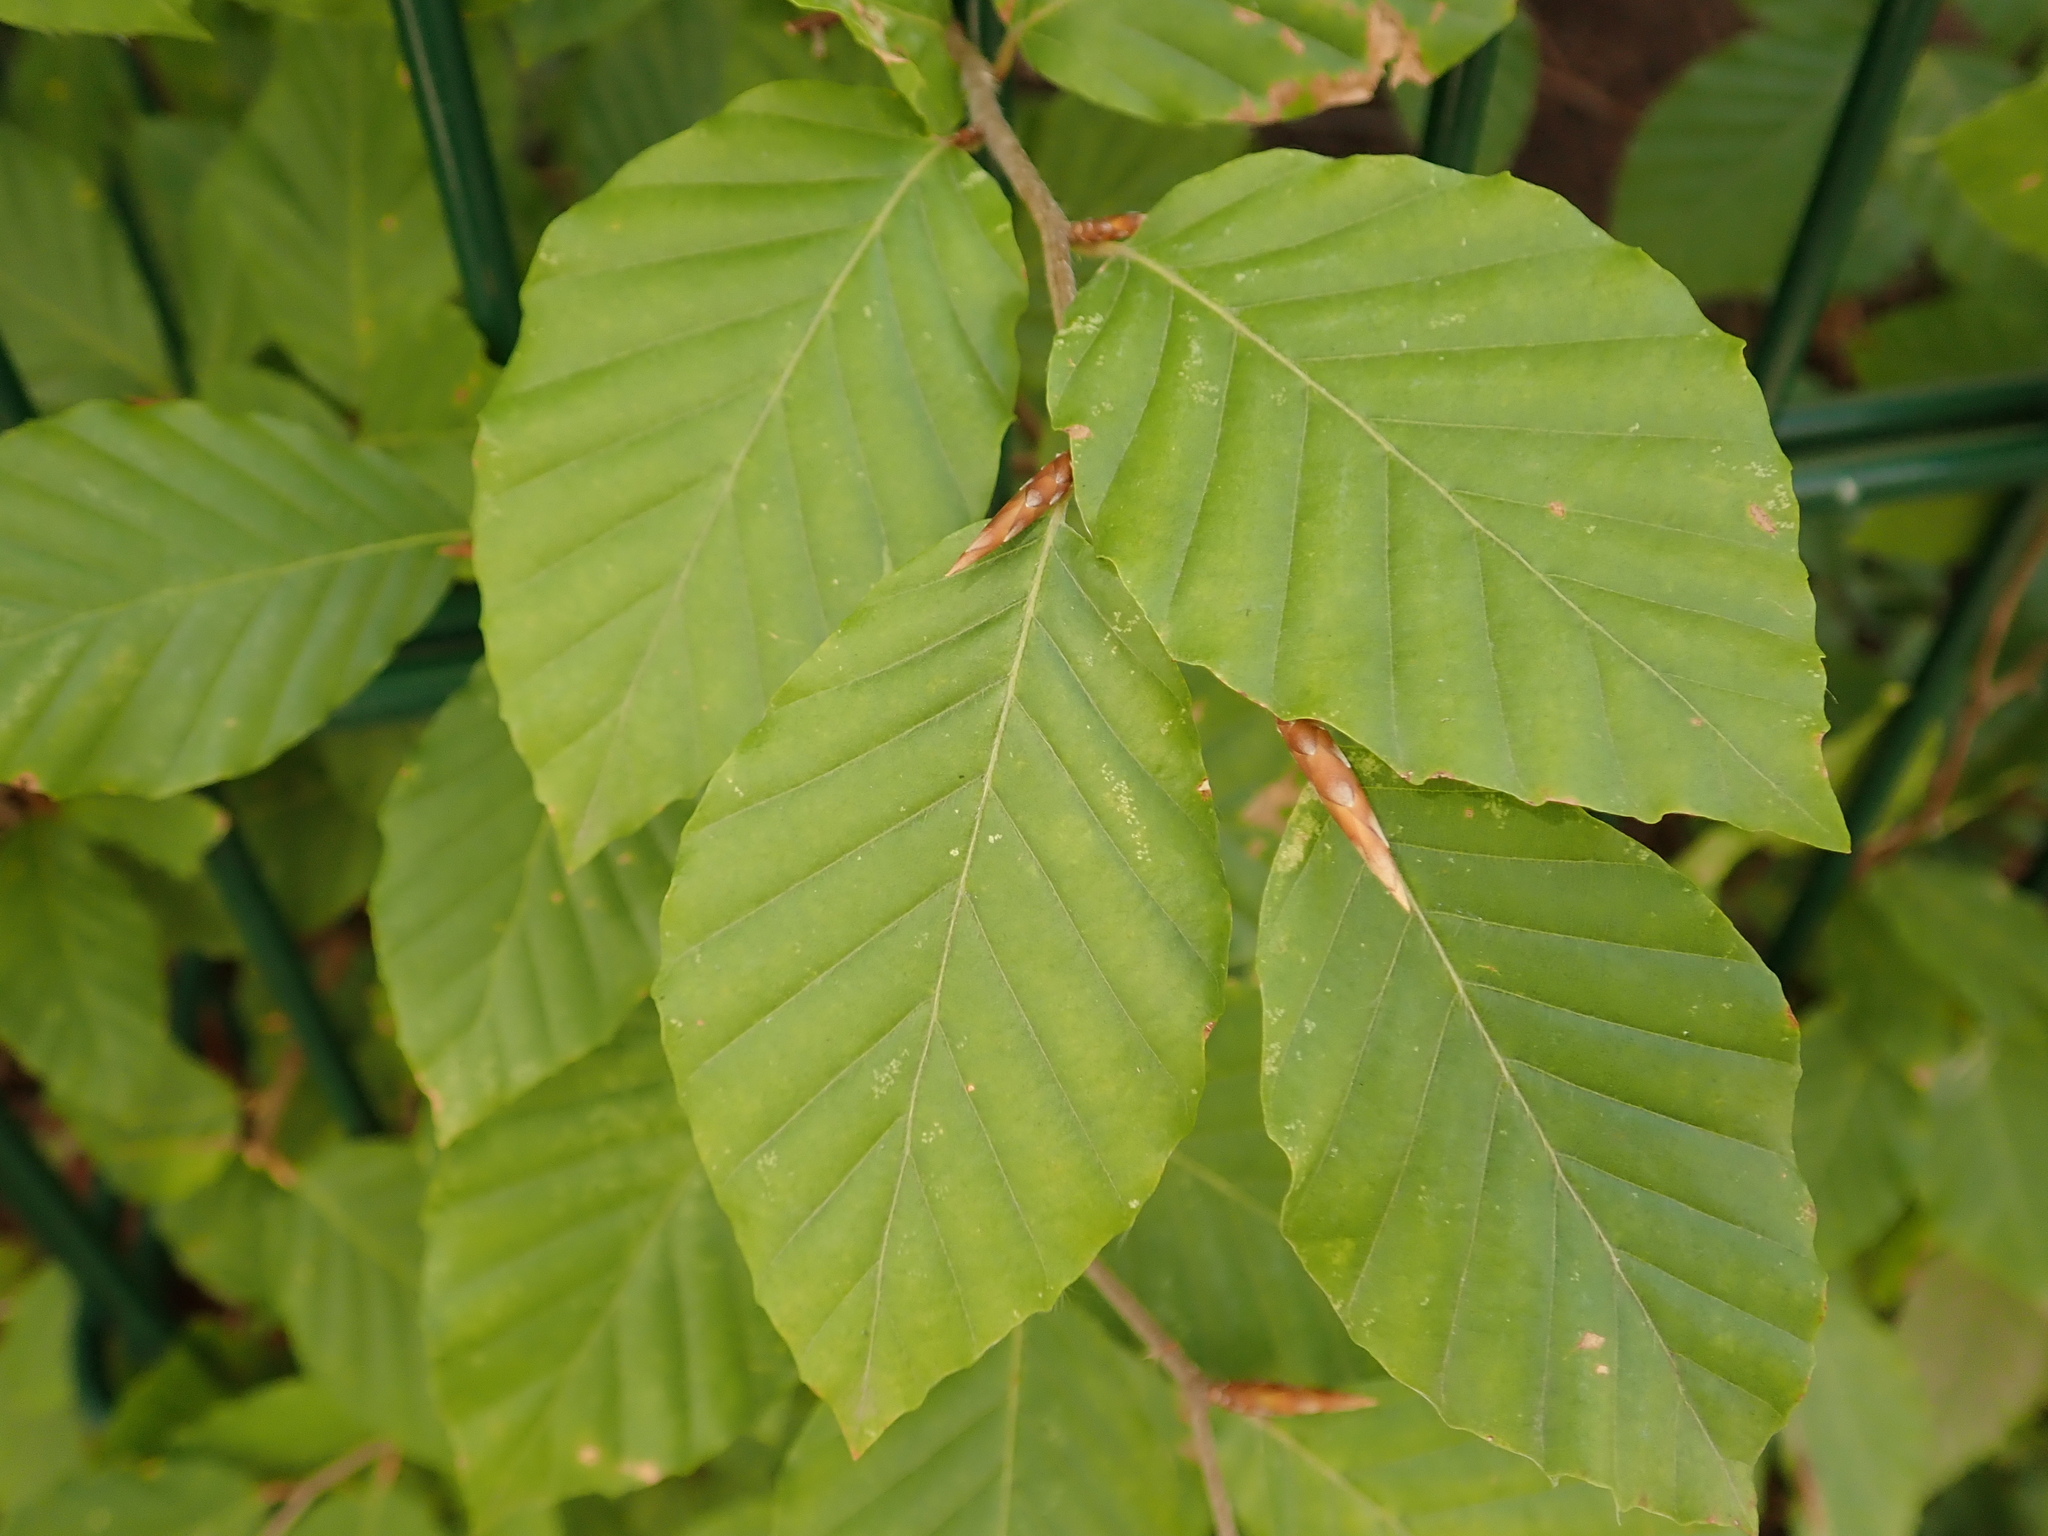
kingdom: Plantae
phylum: Tracheophyta
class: Magnoliopsida
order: Fagales
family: Fagaceae
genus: Fagus
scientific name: Fagus sylvatica
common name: Beech
